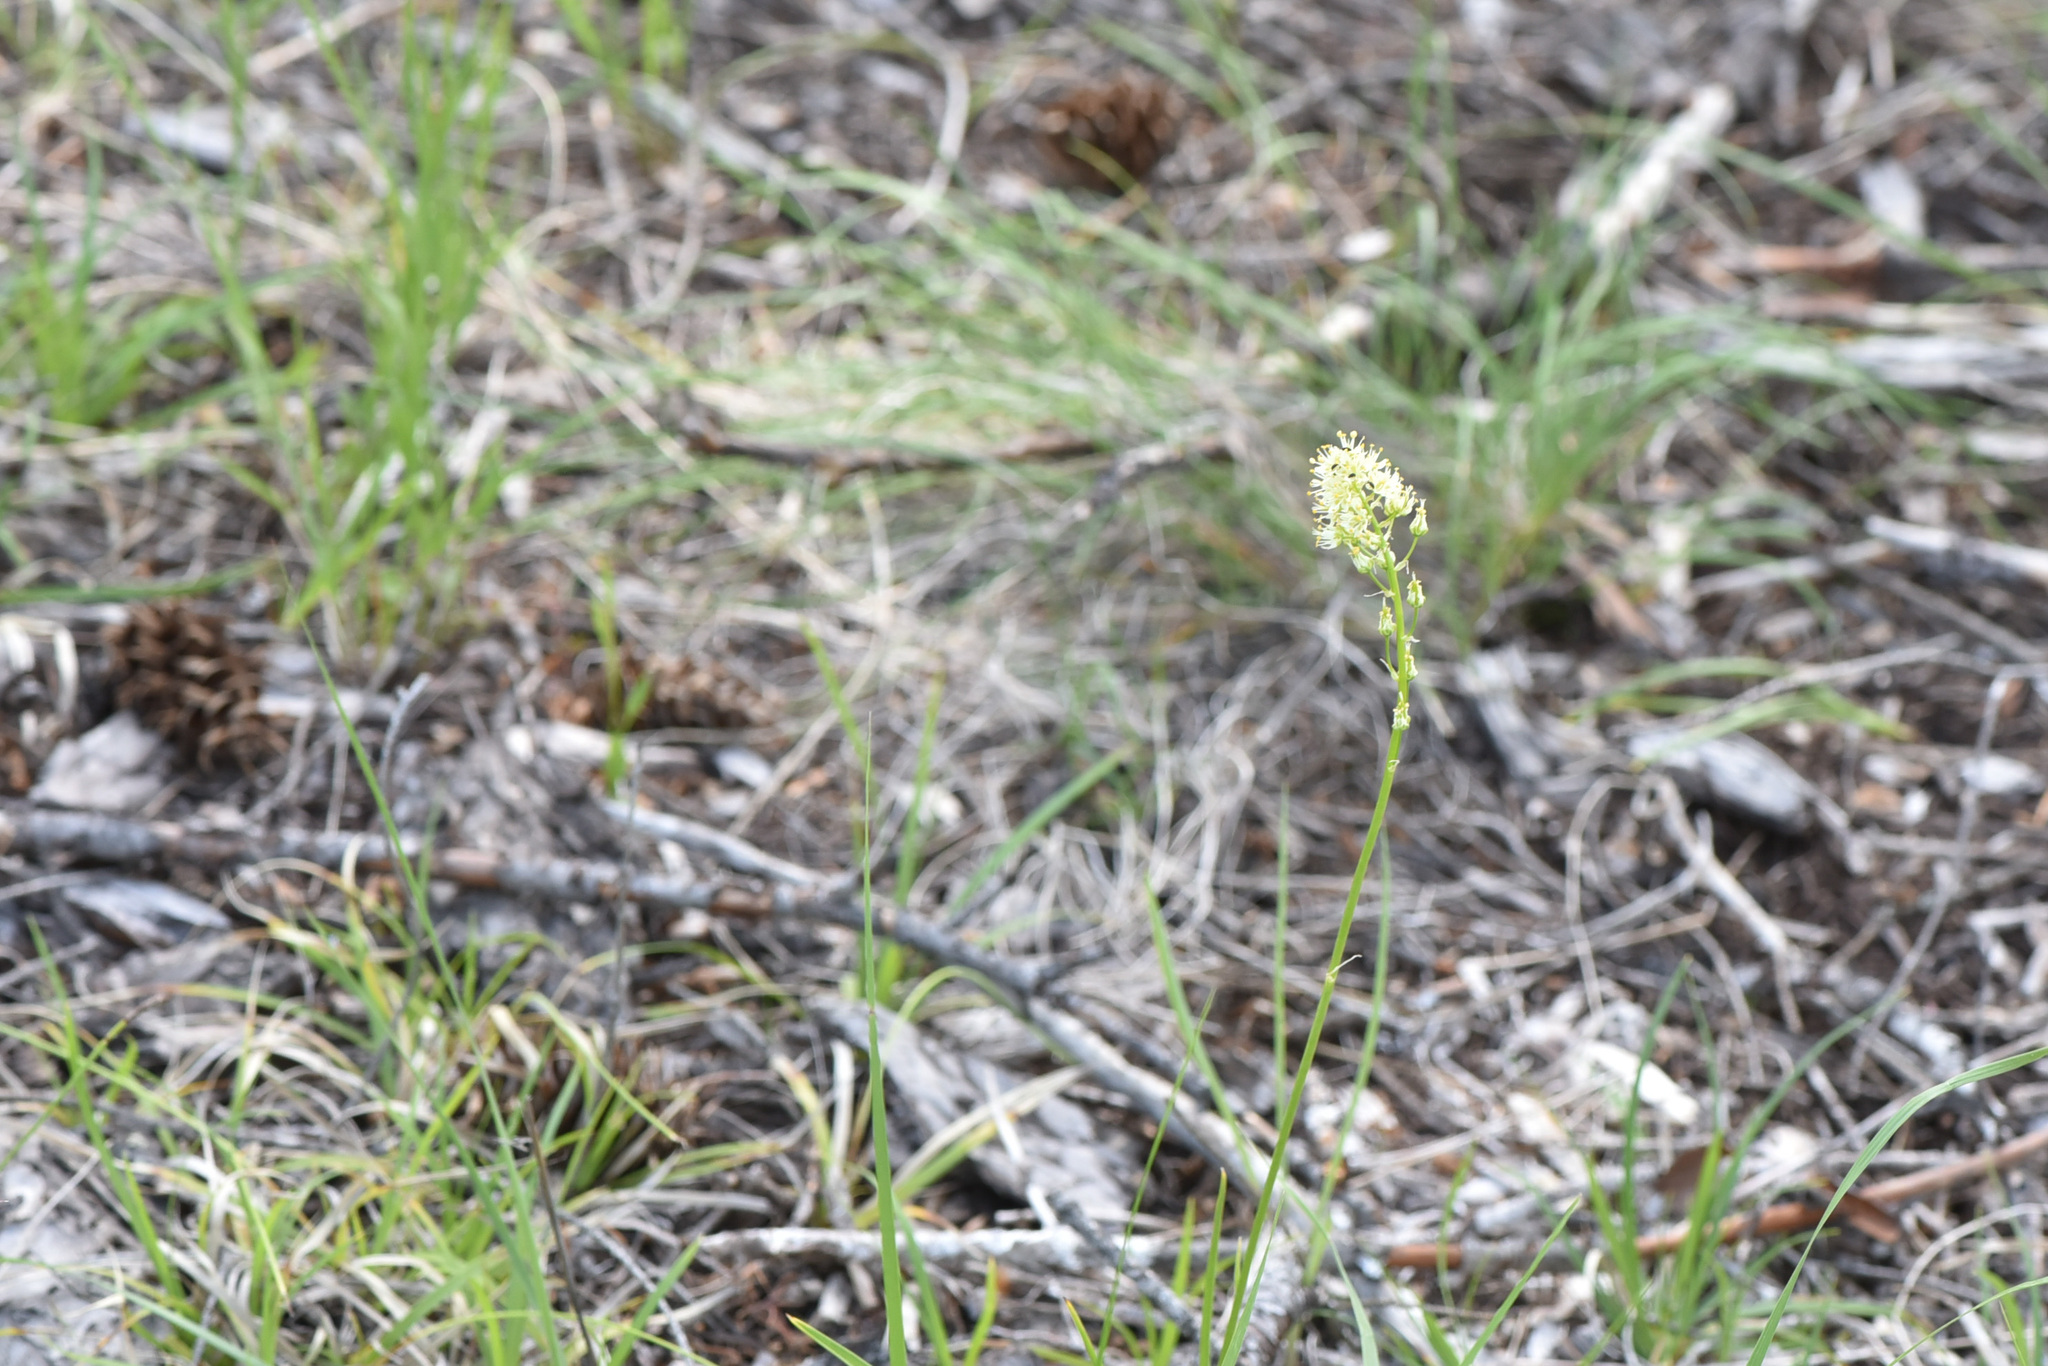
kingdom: Plantae
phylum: Tracheophyta
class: Liliopsida
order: Liliales
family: Melanthiaceae
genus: Toxicoscordion
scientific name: Toxicoscordion venenosum
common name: Meadow death camas
